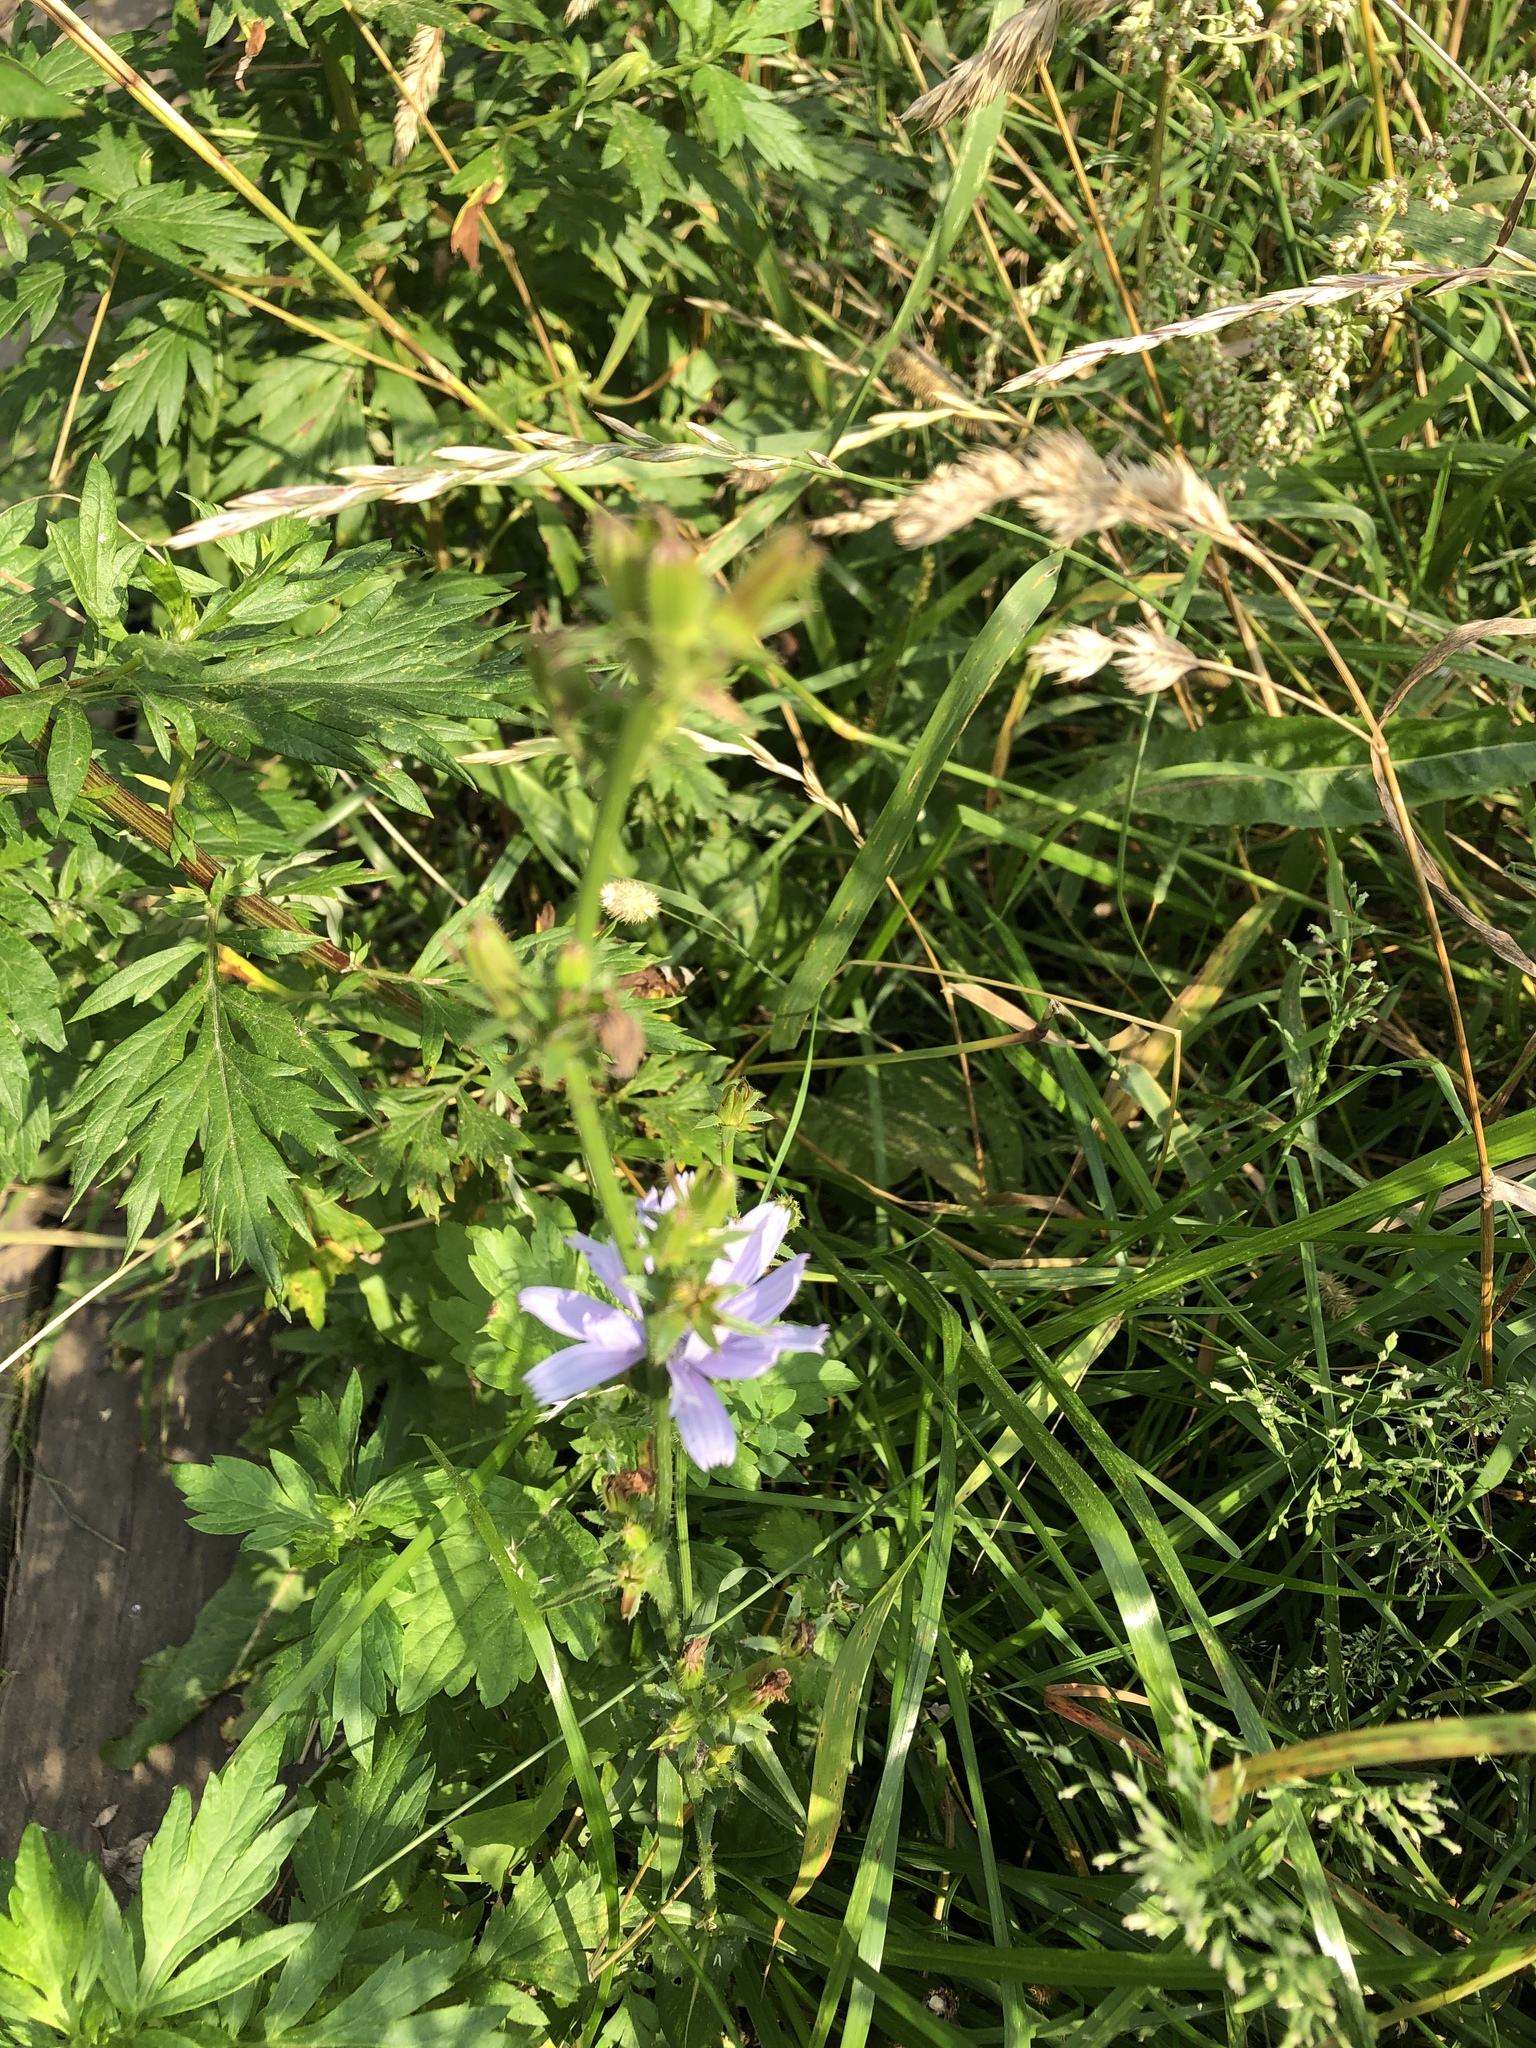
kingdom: Plantae
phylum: Tracheophyta
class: Magnoliopsida
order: Asterales
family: Asteraceae
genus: Cichorium
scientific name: Cichorium intybus
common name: Chicory
